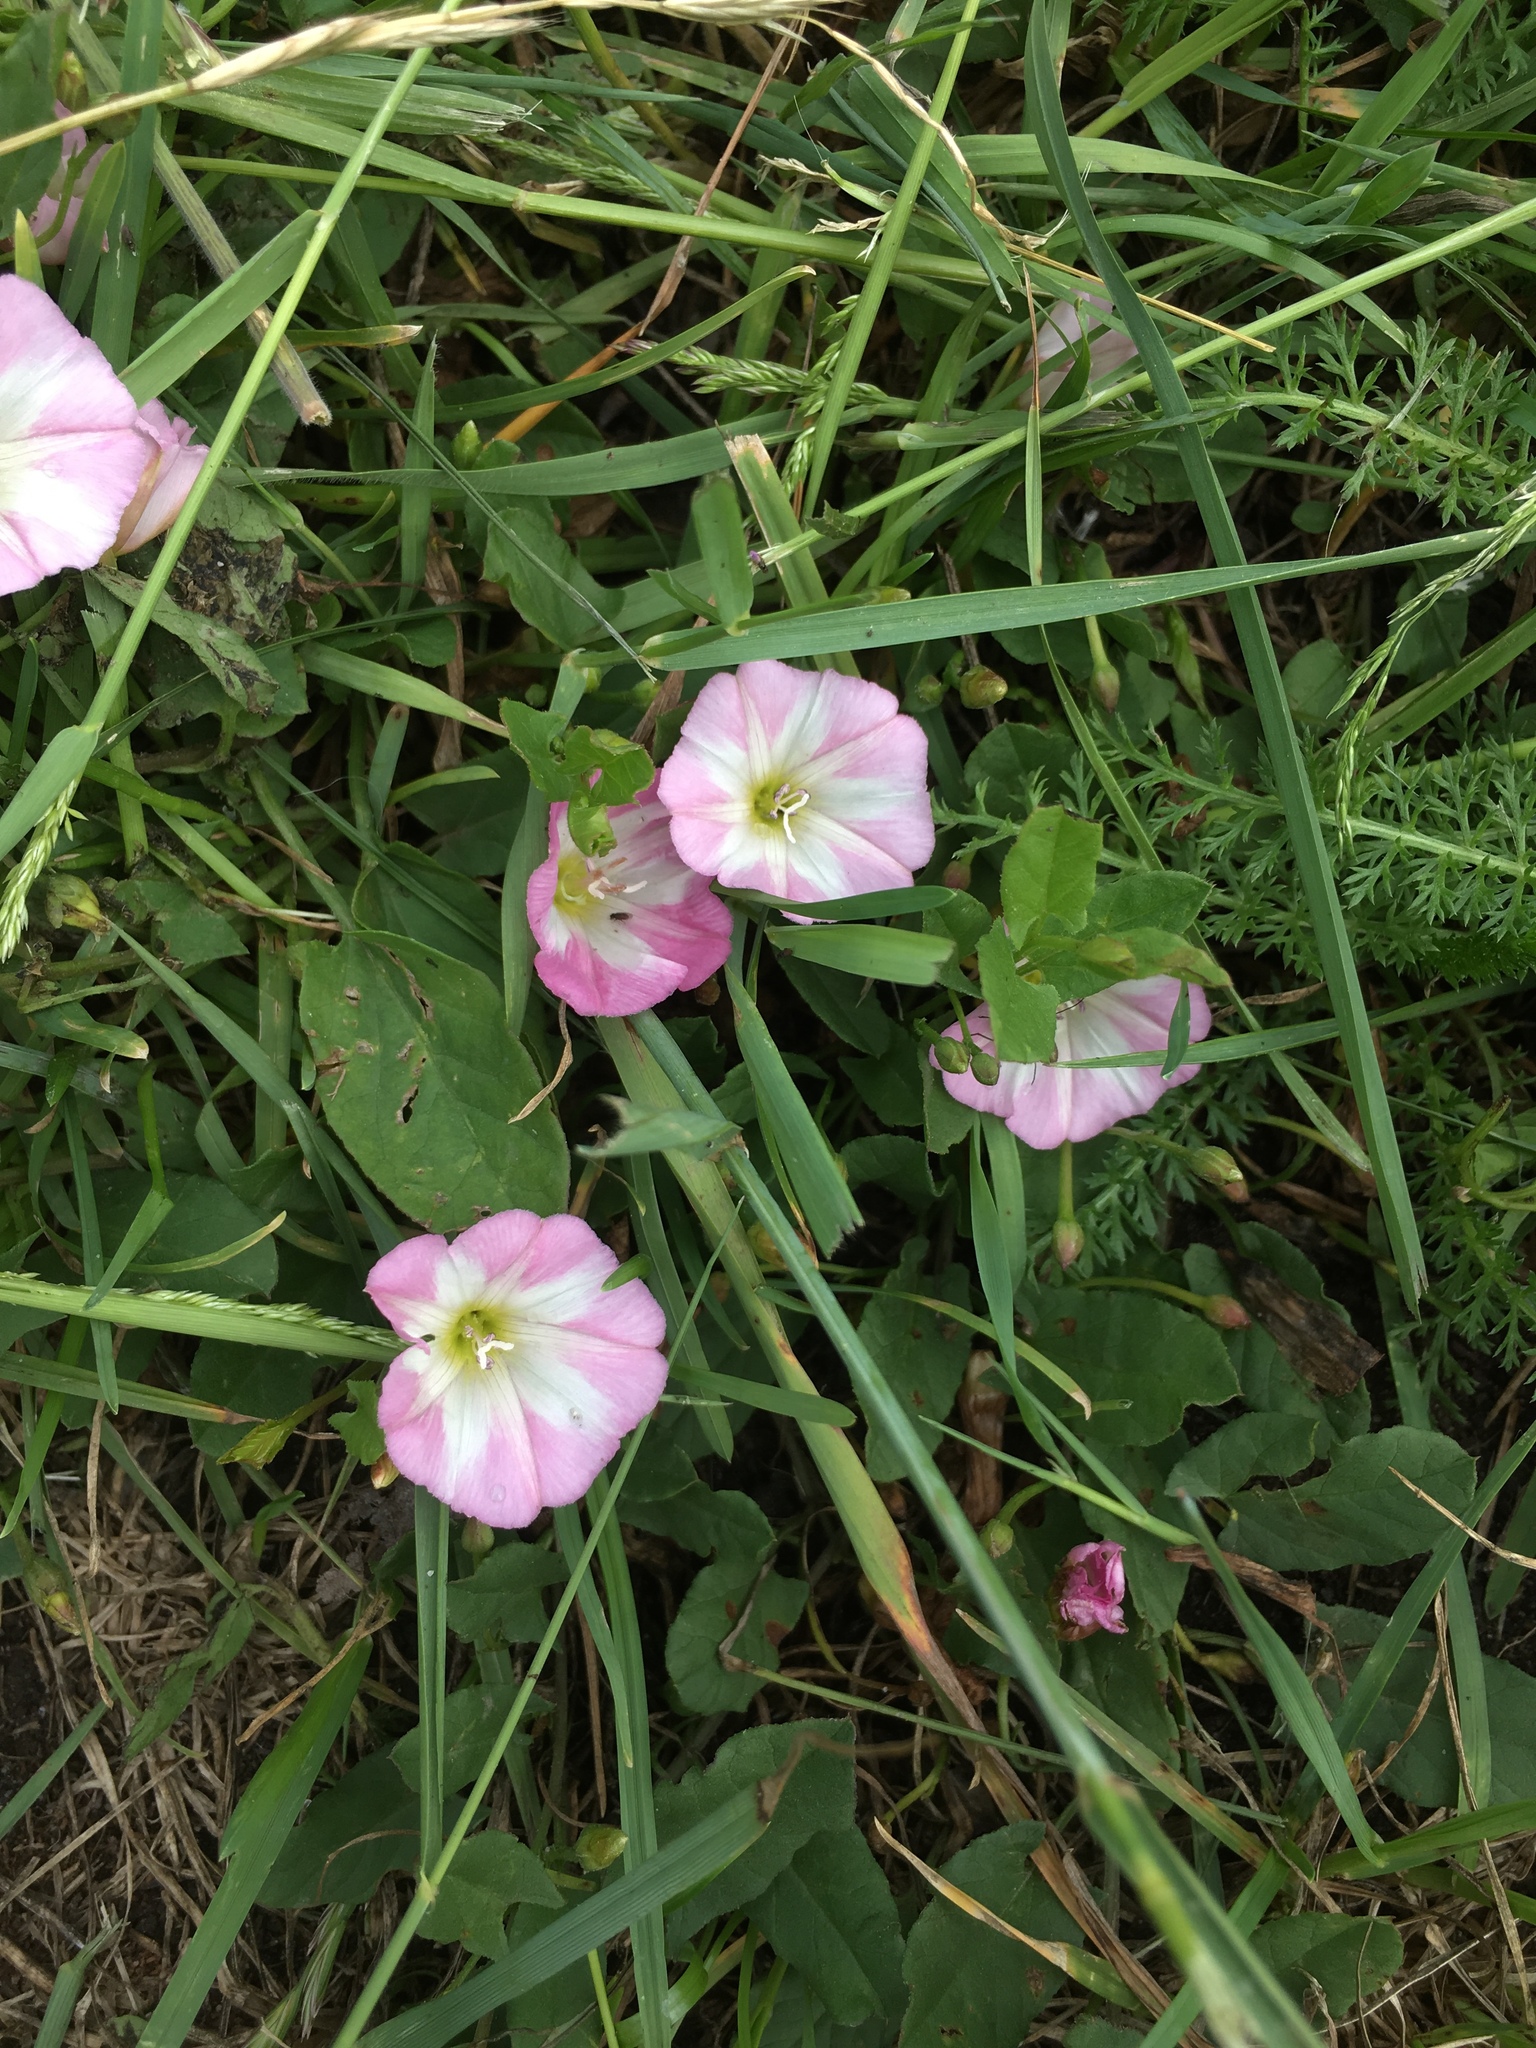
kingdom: Plantae
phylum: Tracheophyta
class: Magnoliopsida
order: Solanales
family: Convolvulaceae
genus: Convolvulus
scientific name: Convolvulus arvensis
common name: Field bindweed
